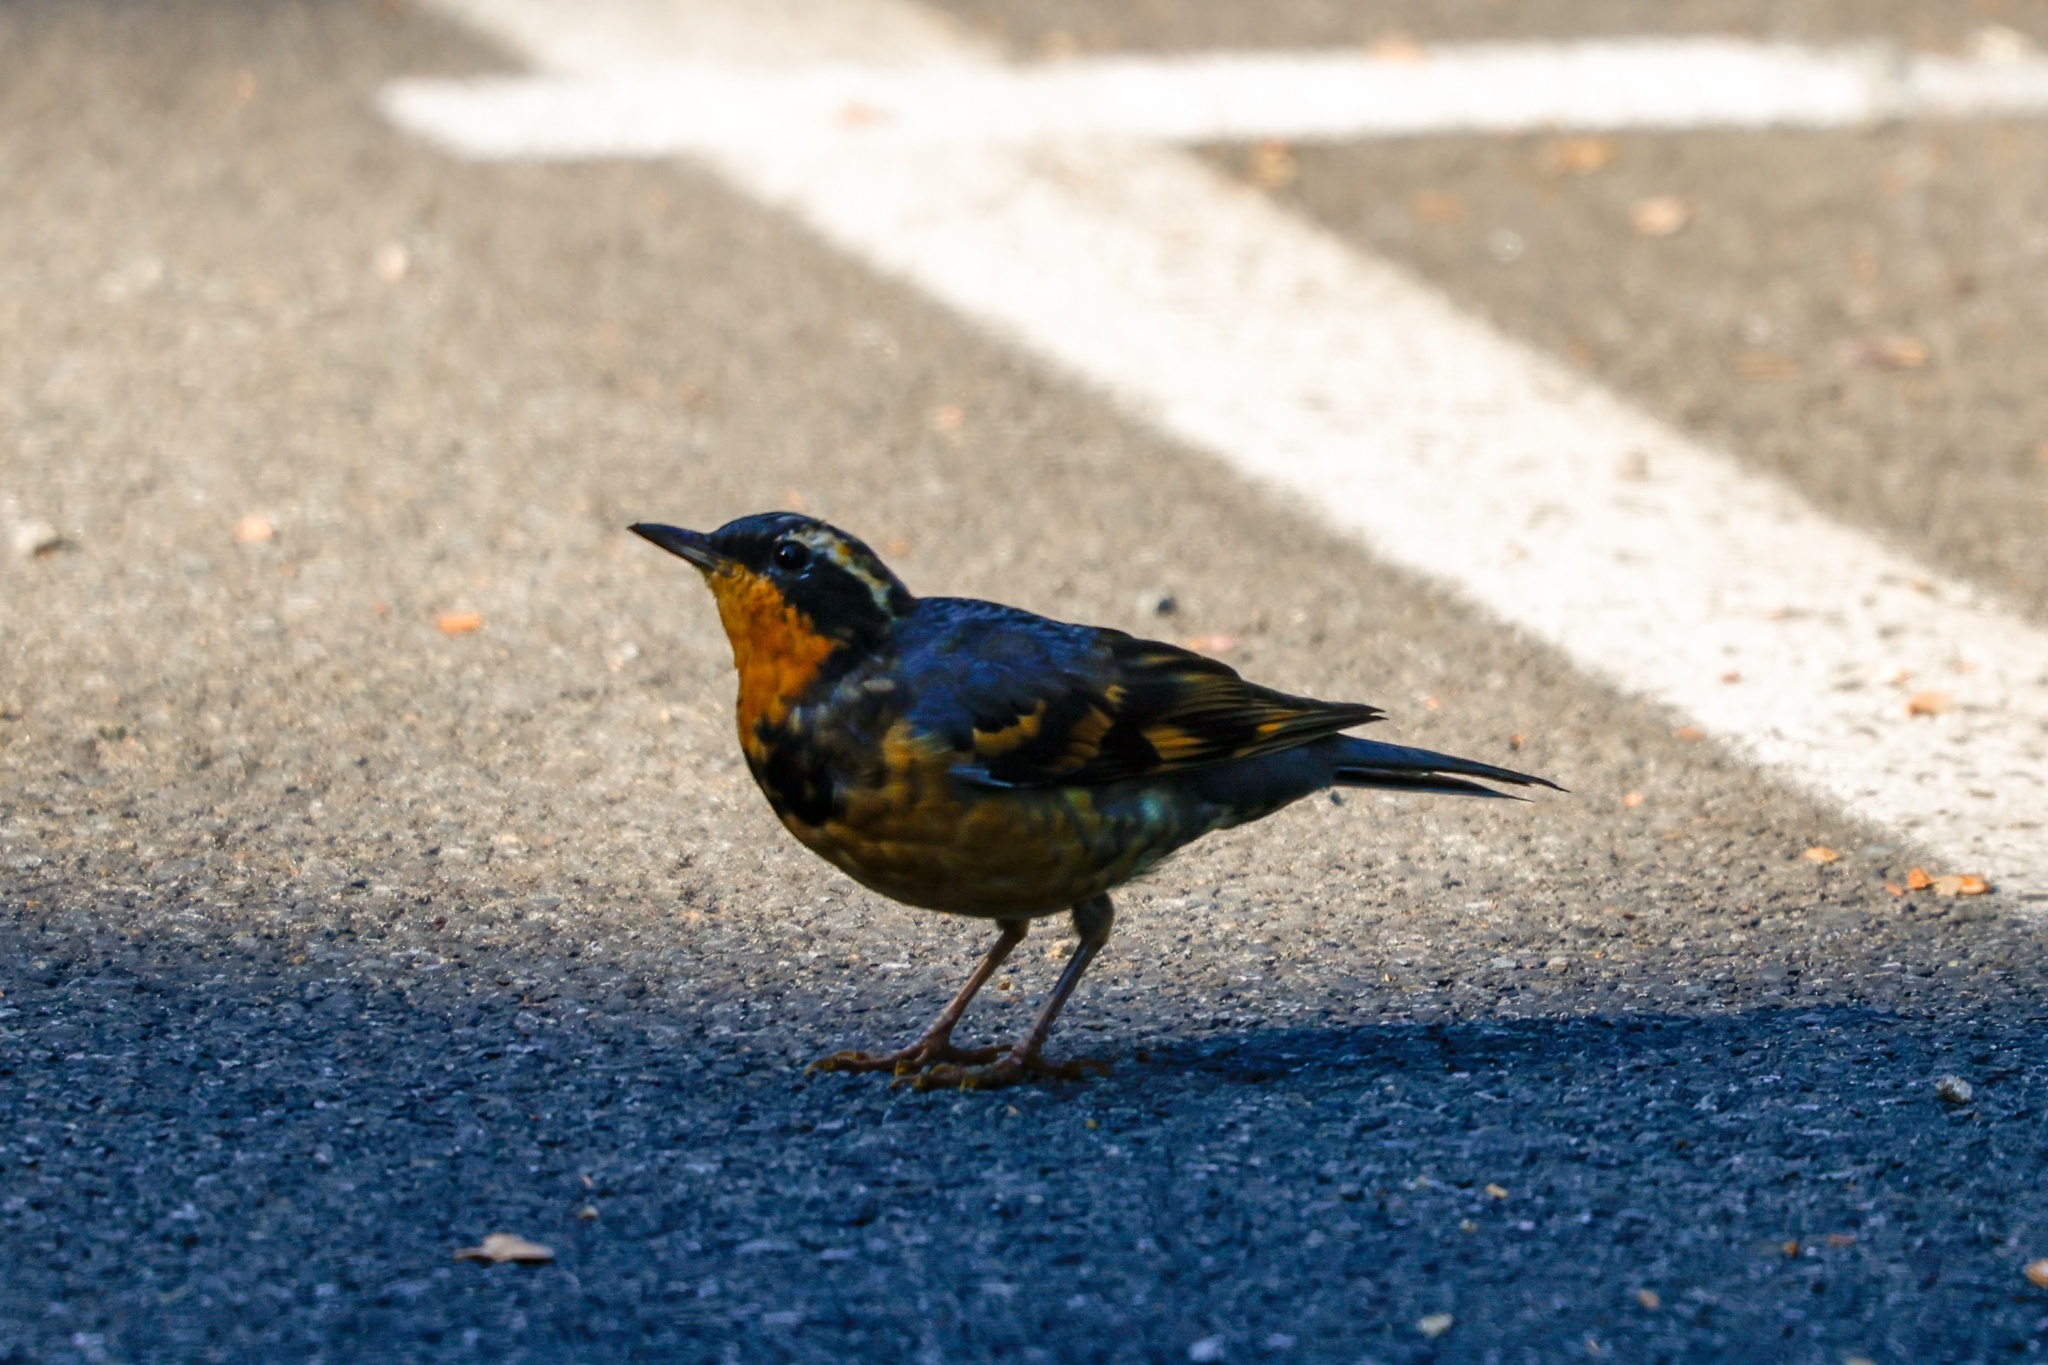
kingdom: Animalia
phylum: Chordata
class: Aves
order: Passeriformes
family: Turdidae
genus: Ixoreus
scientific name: Ixoreus naevius
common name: Varied thrush
